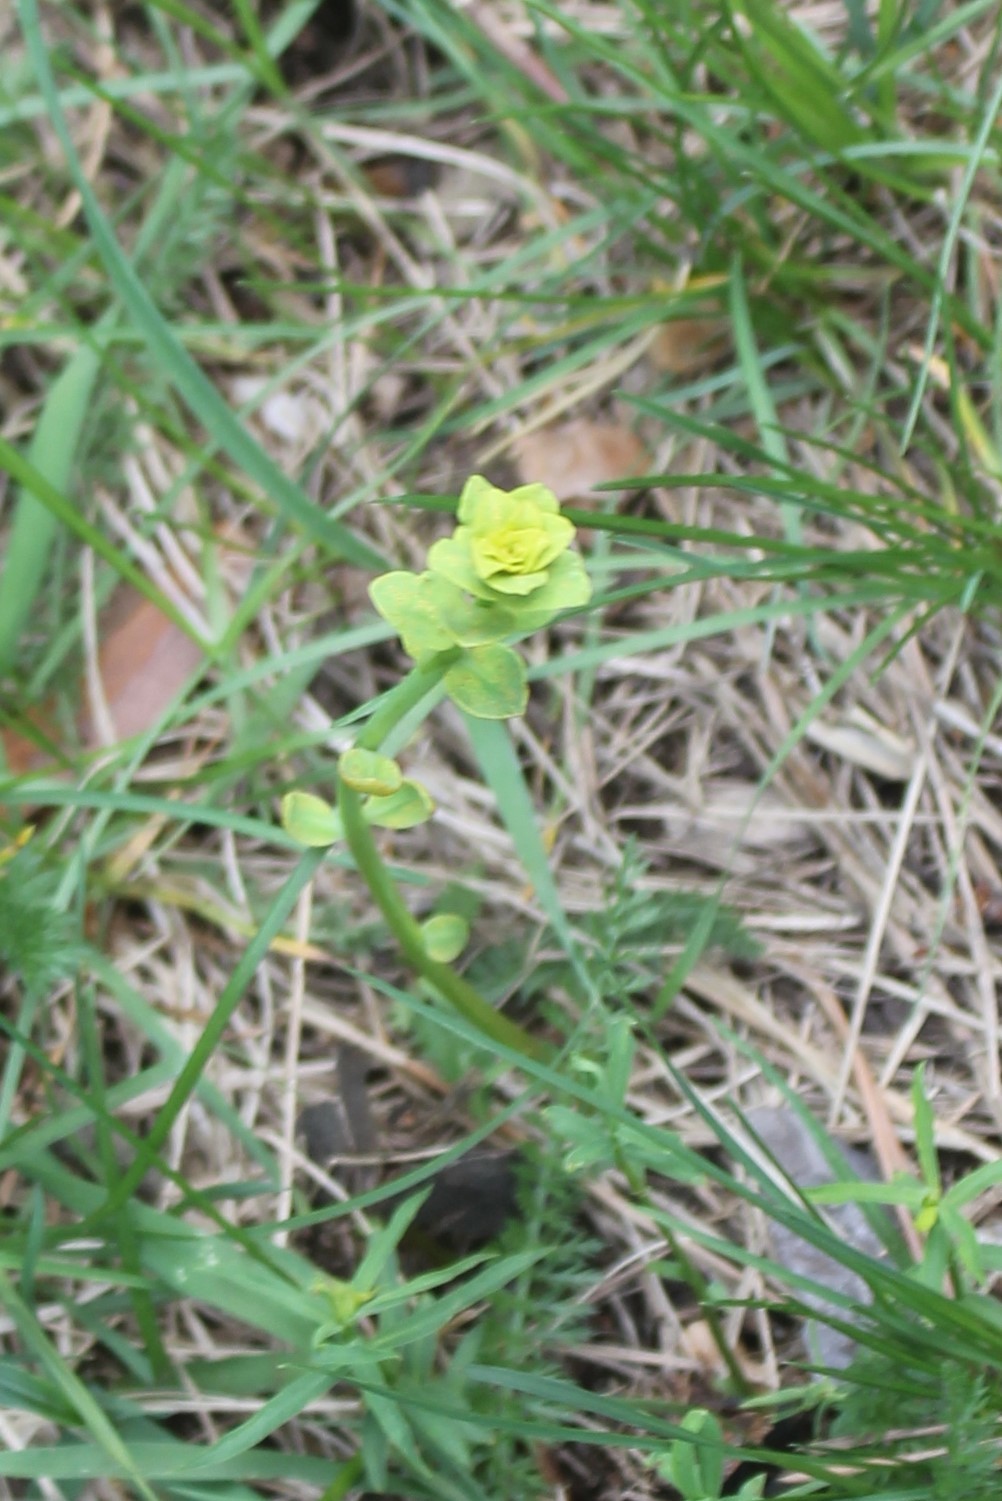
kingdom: Plantae
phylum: Tracheophyta
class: Magnoliopsida
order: Malpighiales
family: Euphorbiaceae
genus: Euphorbia
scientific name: Euphorbia virgata
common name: Leafy spurge
